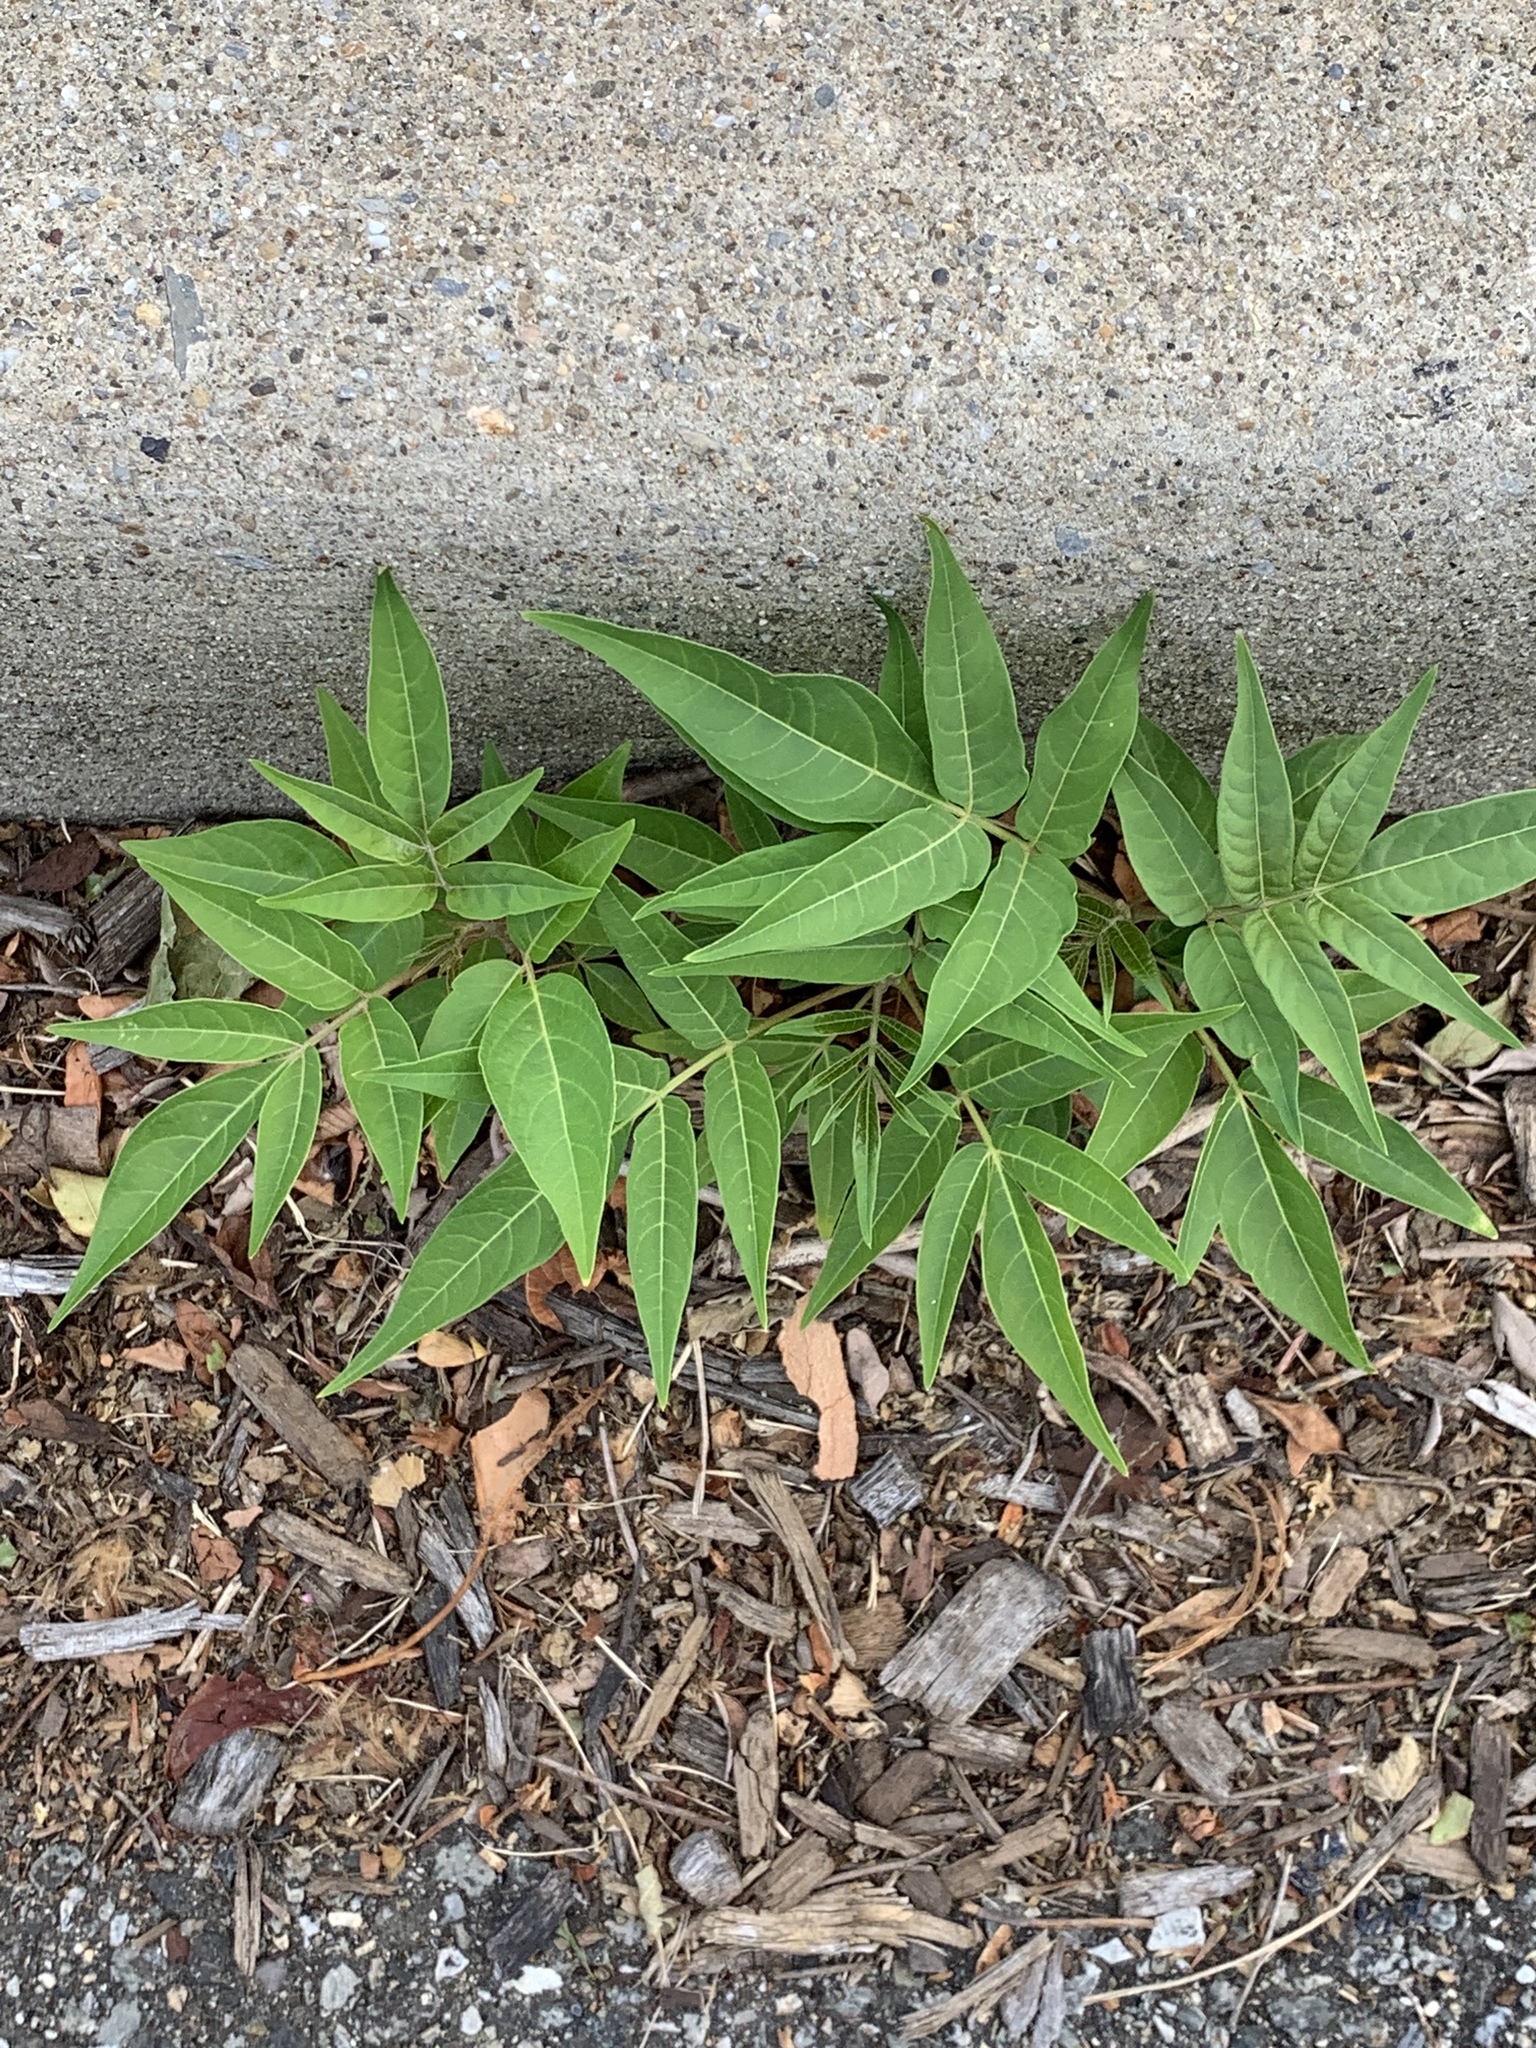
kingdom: Plantae
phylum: Tracheophyta
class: Magnoliopsida
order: Sapindales
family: Simaroubaceae
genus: Ailanthus
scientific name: Ailanthus altissima
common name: Tree-of-heaven
